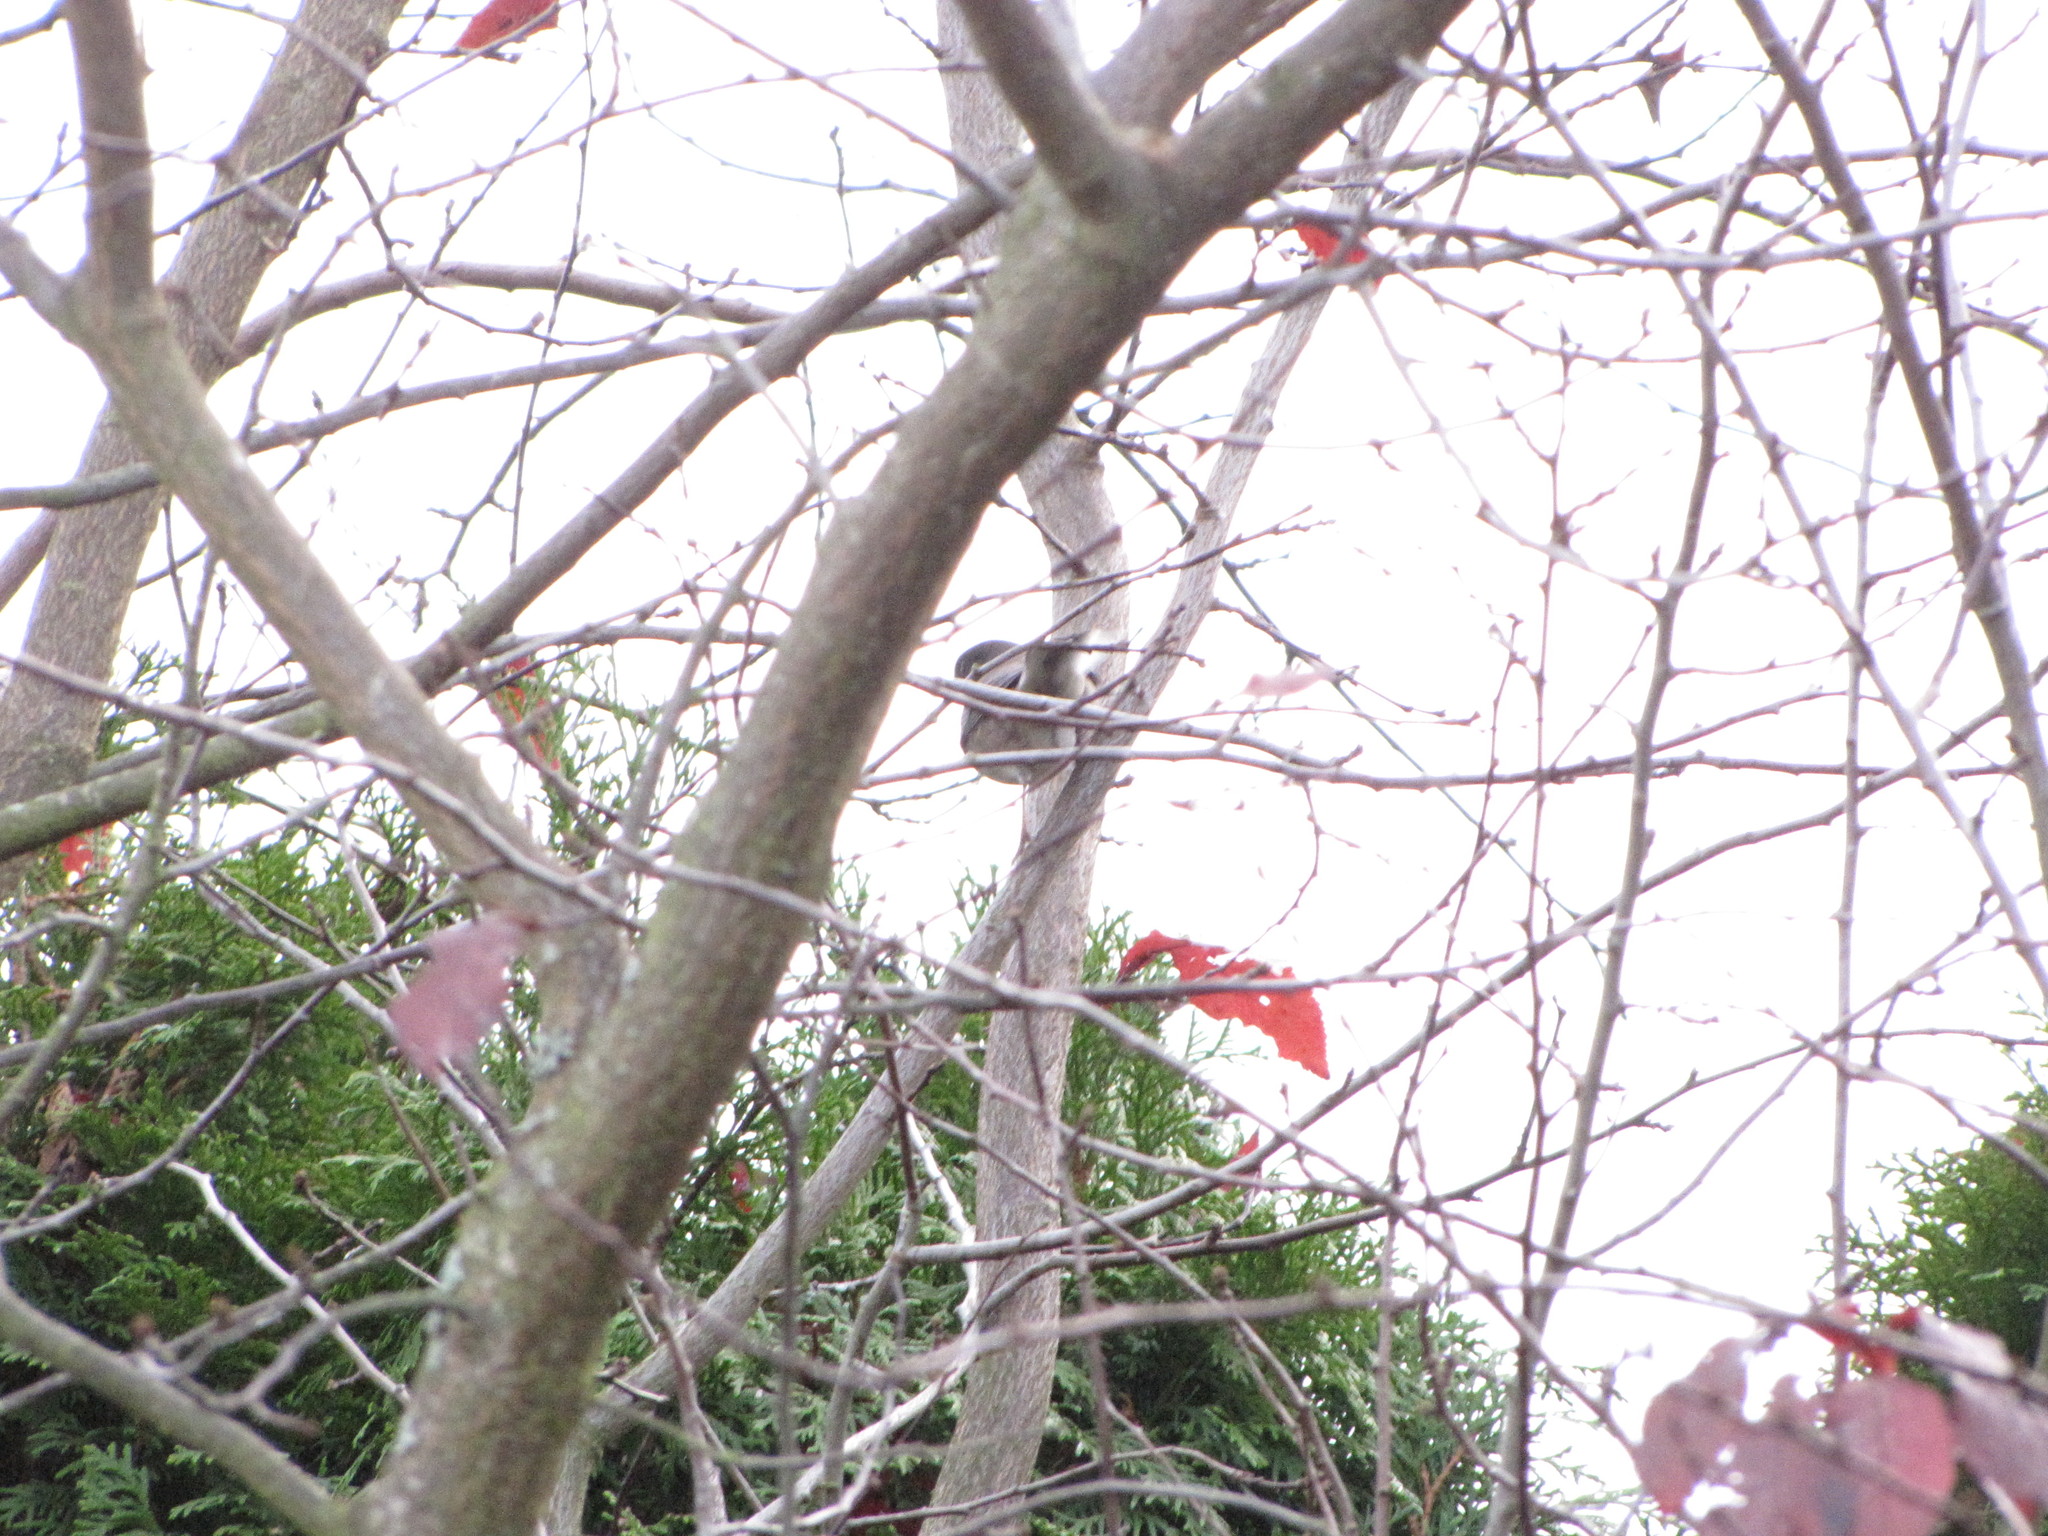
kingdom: Animalia
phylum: Chordata
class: Aves
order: Passeriformes
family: Turdidae
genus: Turdus
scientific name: Turdus migratorius
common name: American robin
